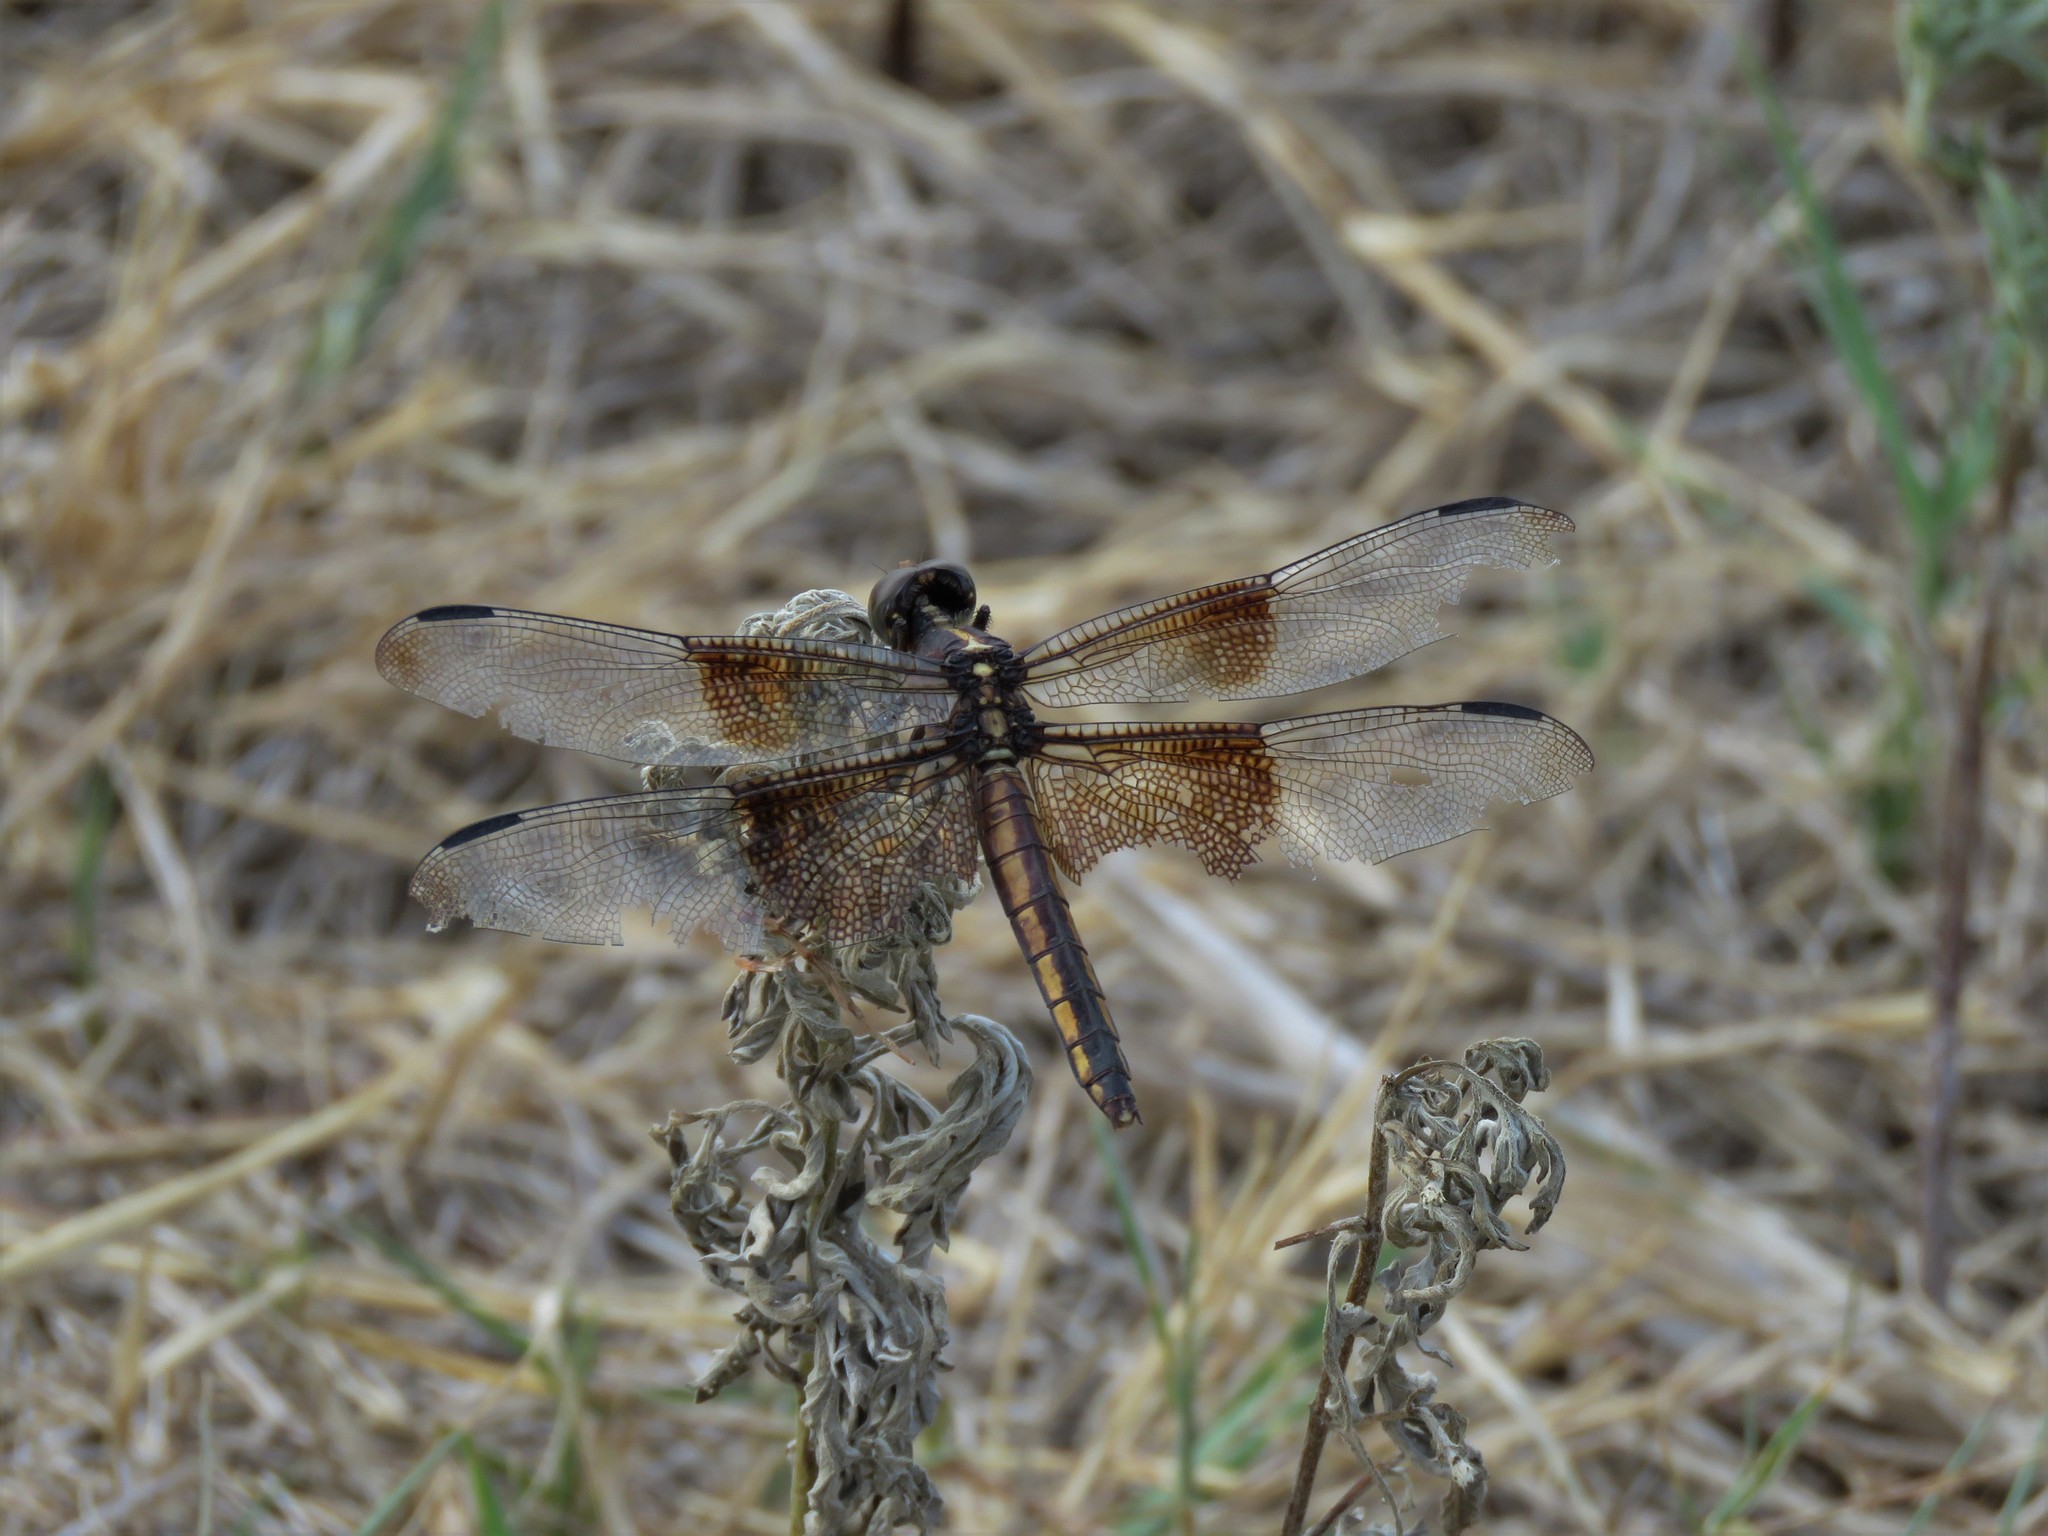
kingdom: Animalia
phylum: Arthropoda
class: Insecta
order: Odonata
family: Libellulidae
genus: Libellula
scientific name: Libellula luctuosa
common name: Widow skimmer
